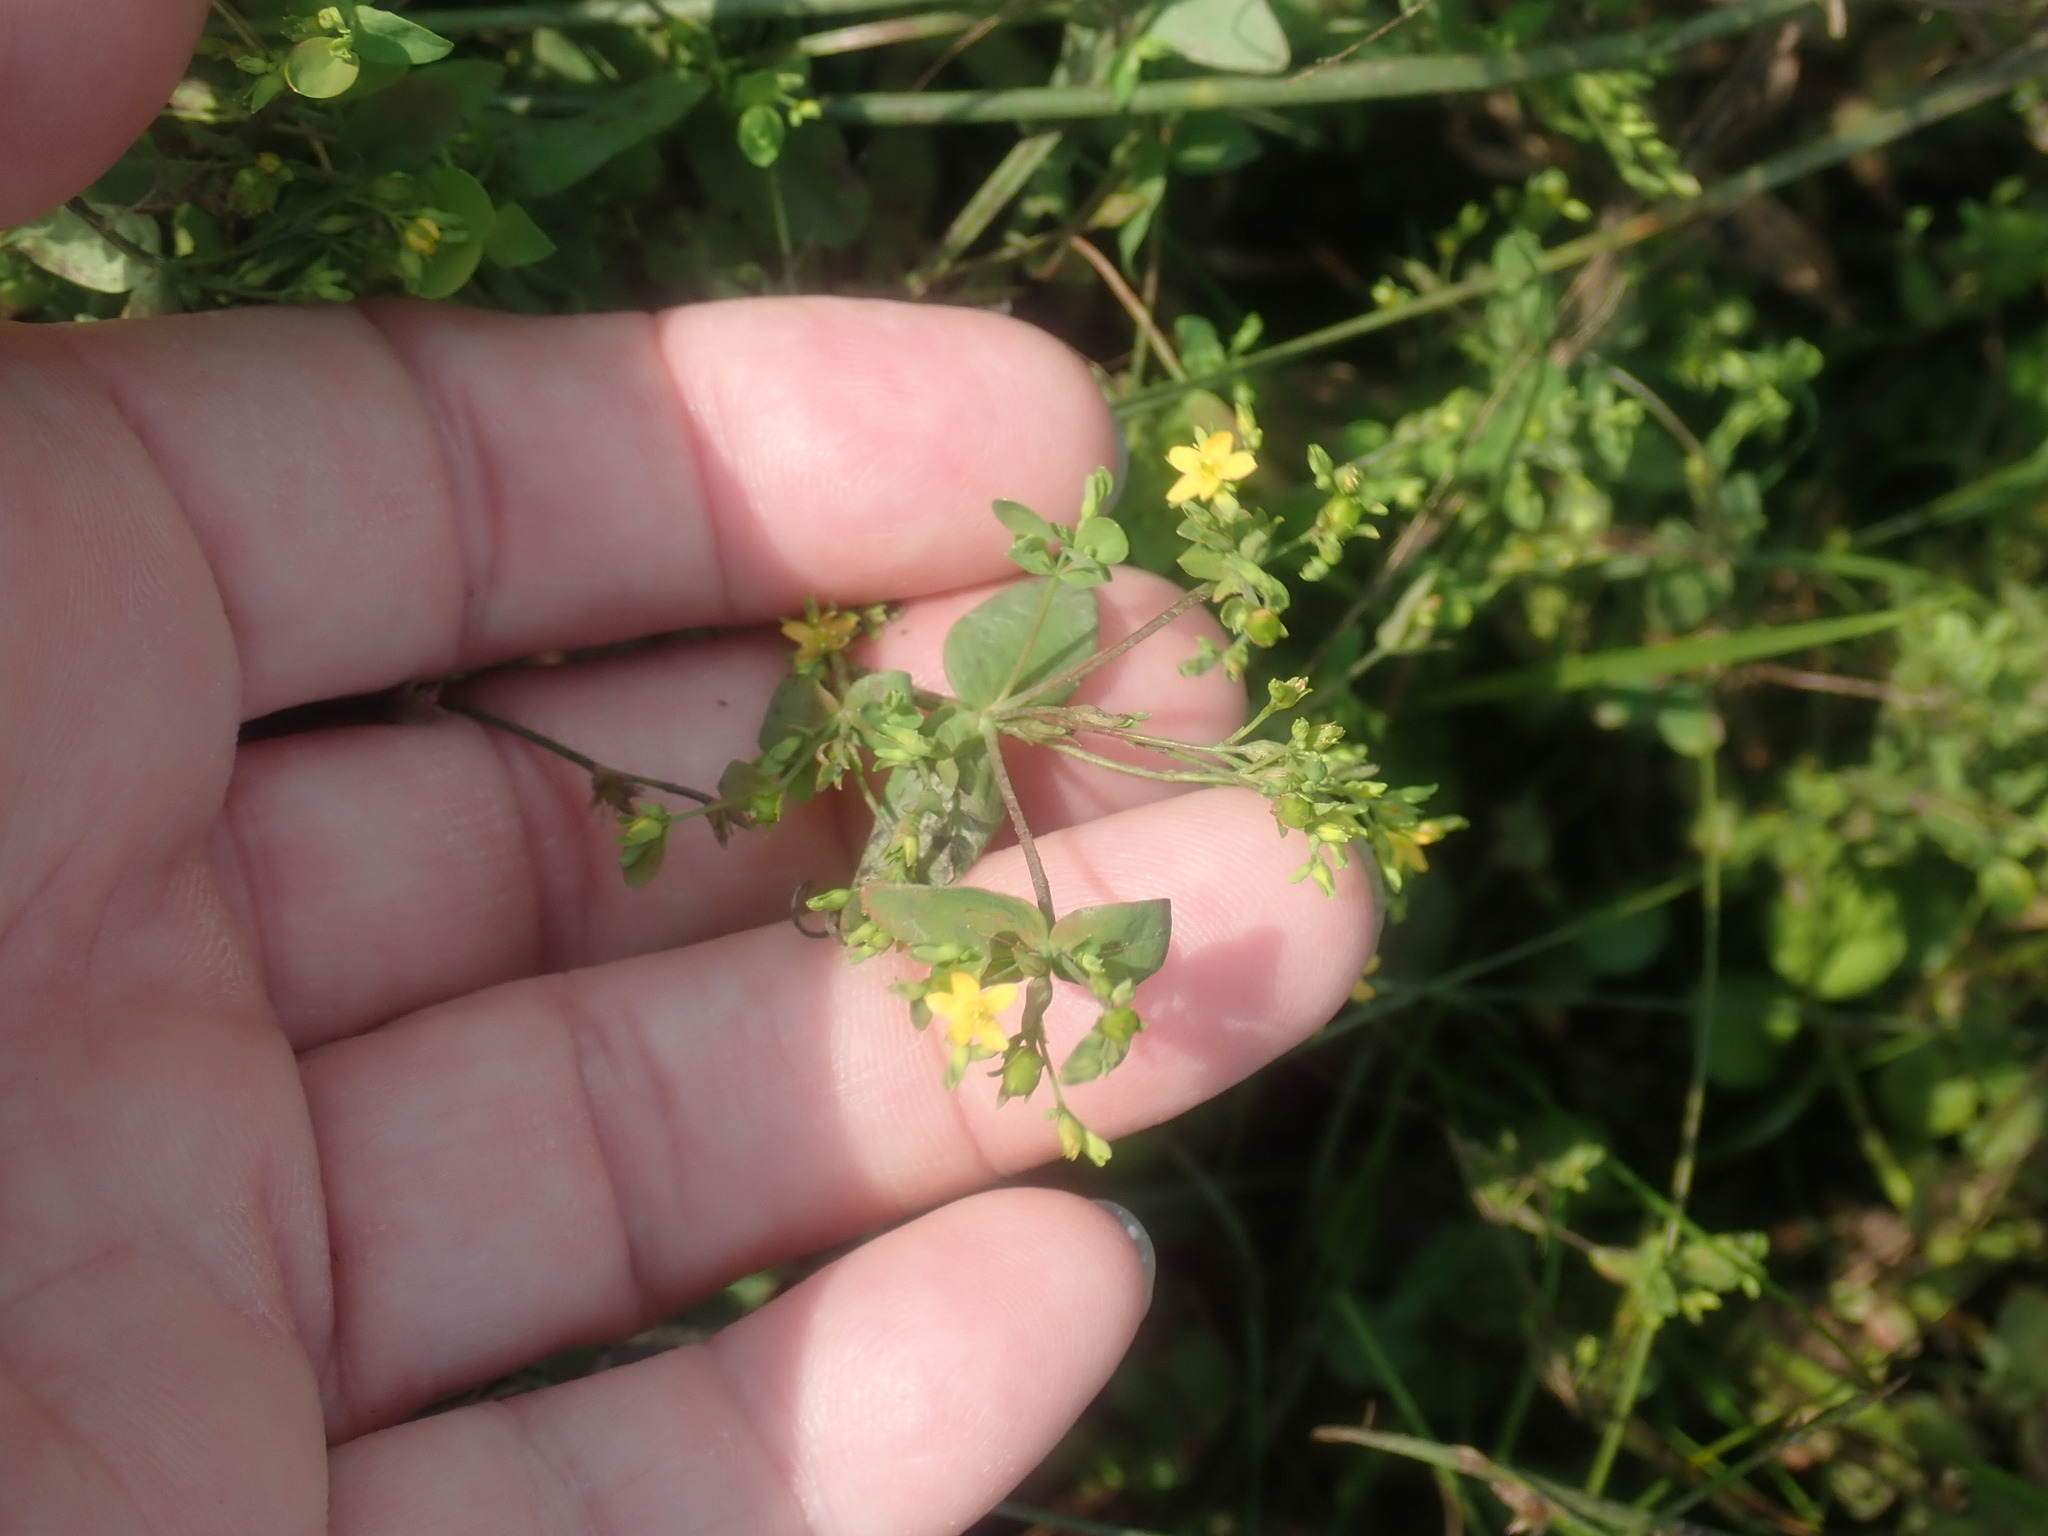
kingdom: Plantae
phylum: Tracheophyta
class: Magnoliopsida
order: Malpighiales
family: Hypericaceae
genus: Hypericum
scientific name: Hypericum mutilum
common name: Dwarf st. john's-wort
